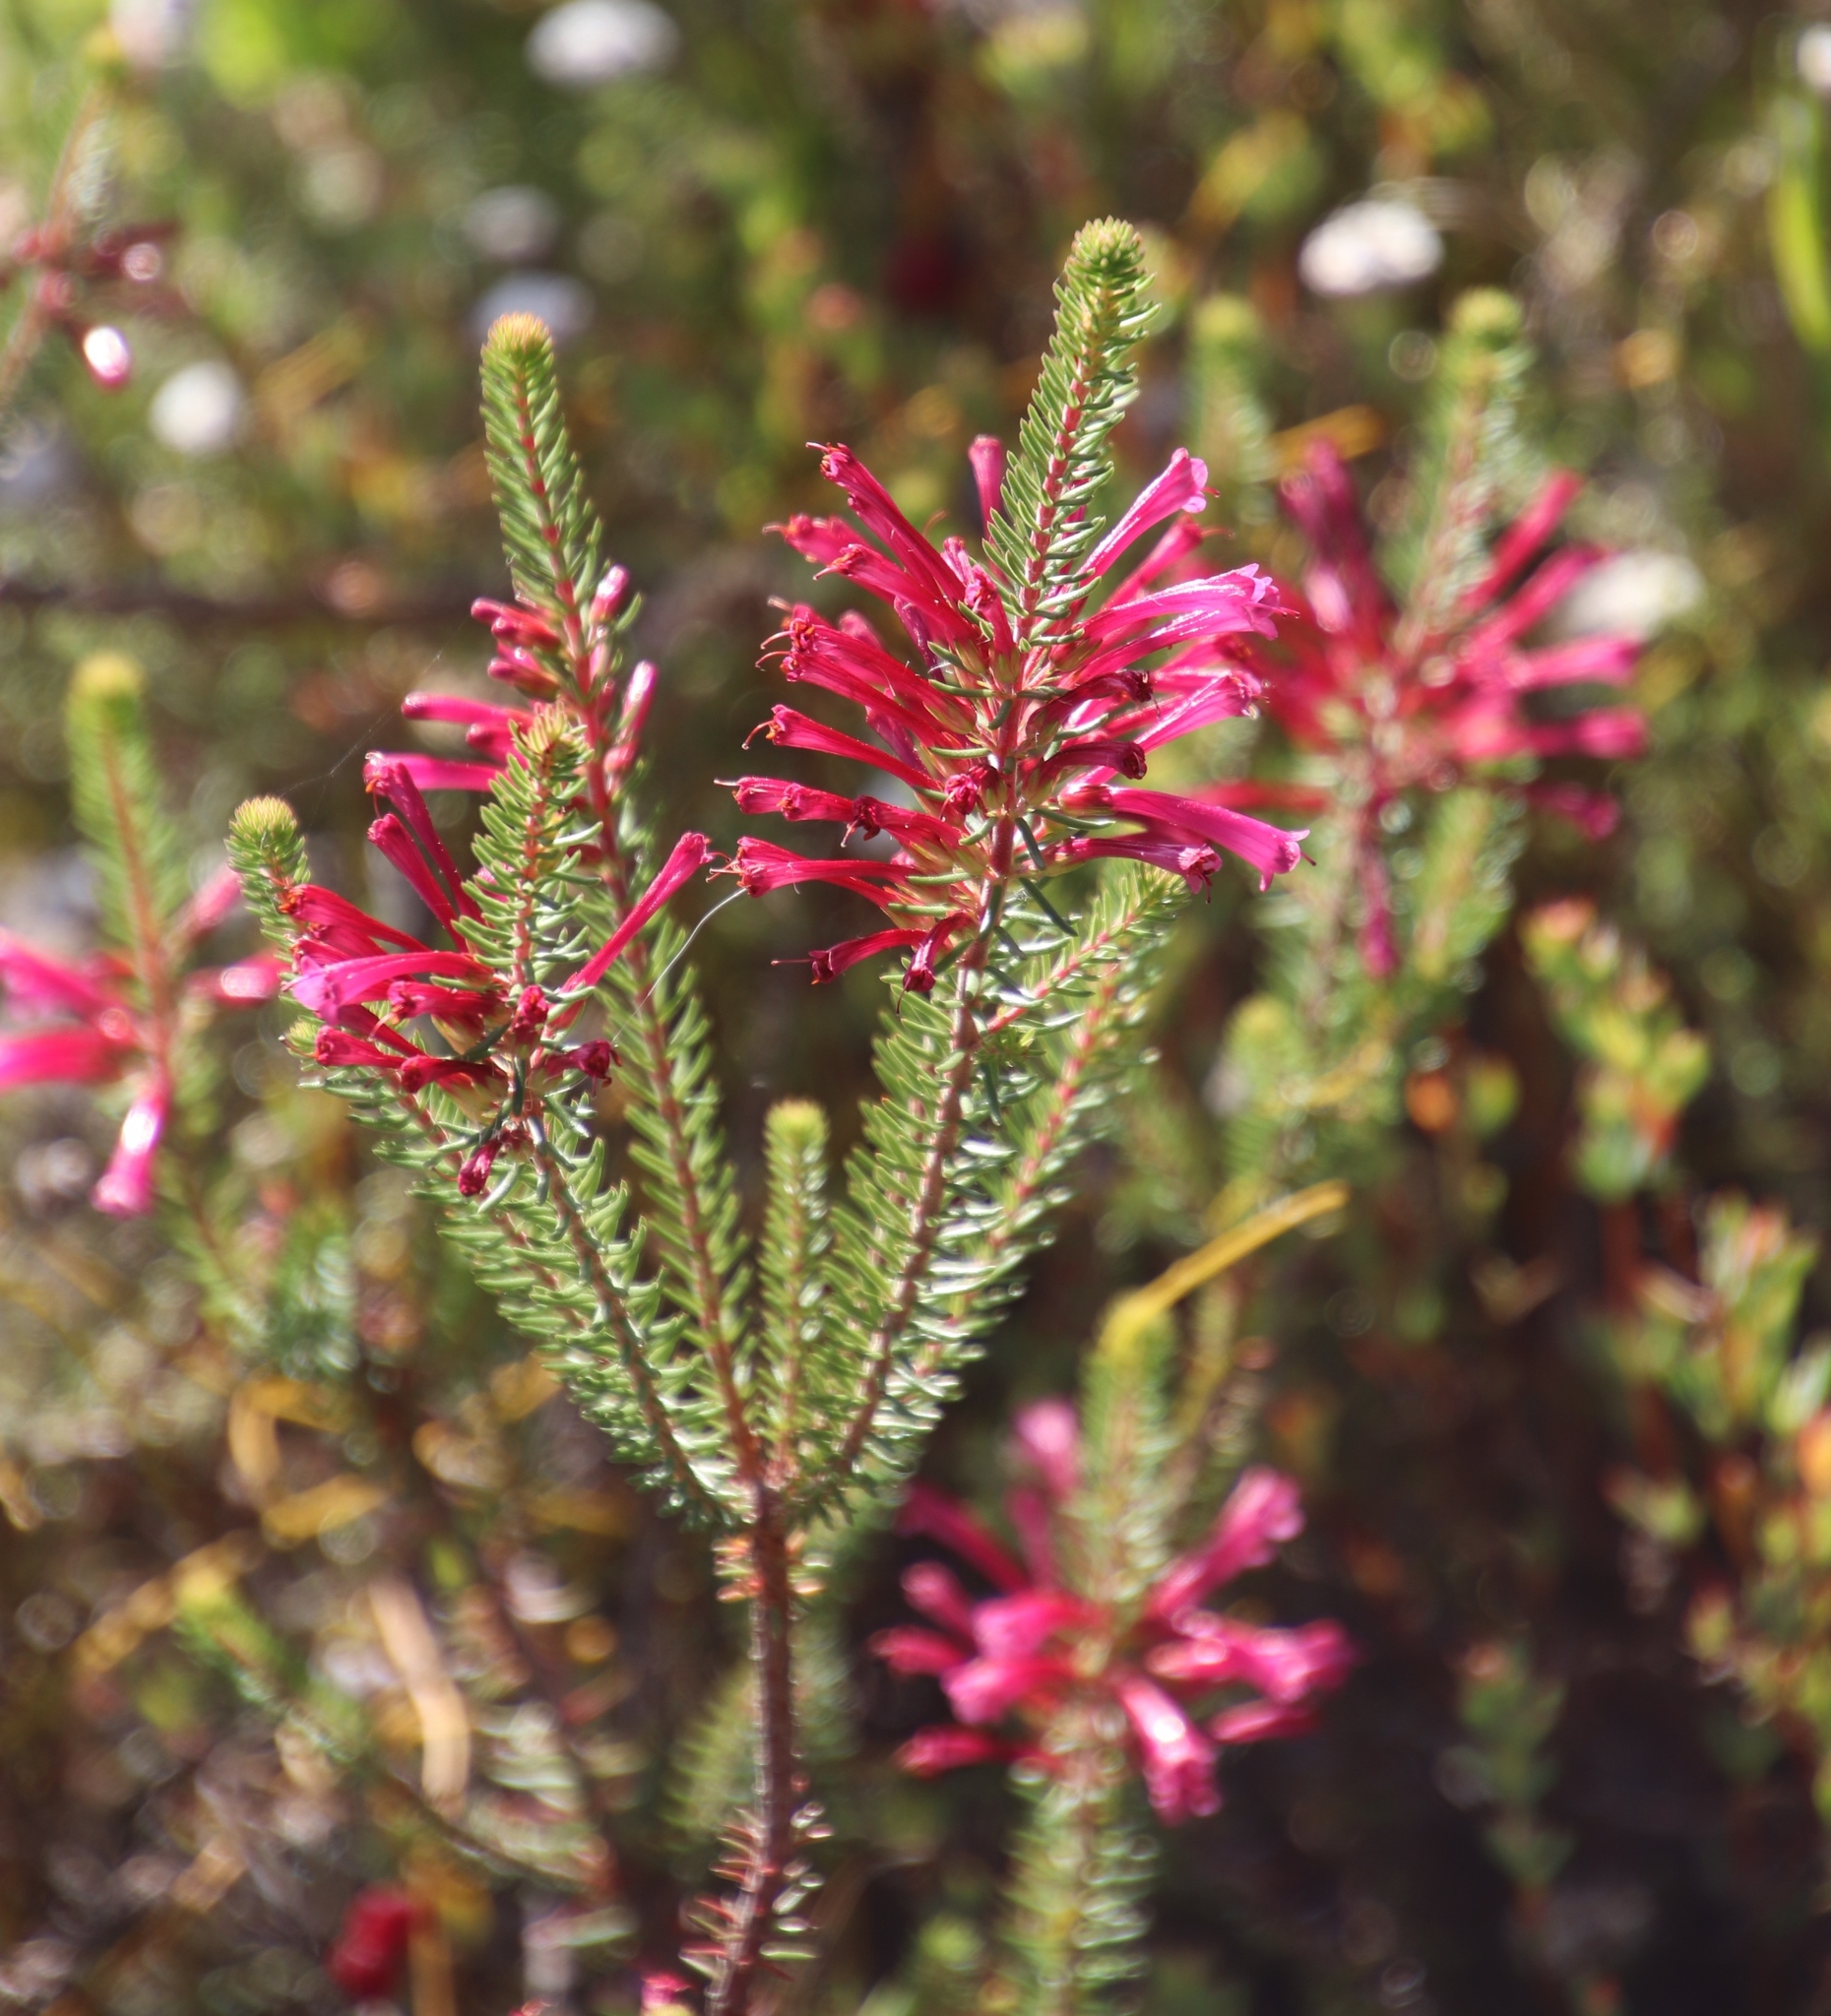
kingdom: Plantae
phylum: Tracheophyta
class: Magnoliopsida
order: Ericales
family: Ericaceae
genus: Erica
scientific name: Erica abietina
